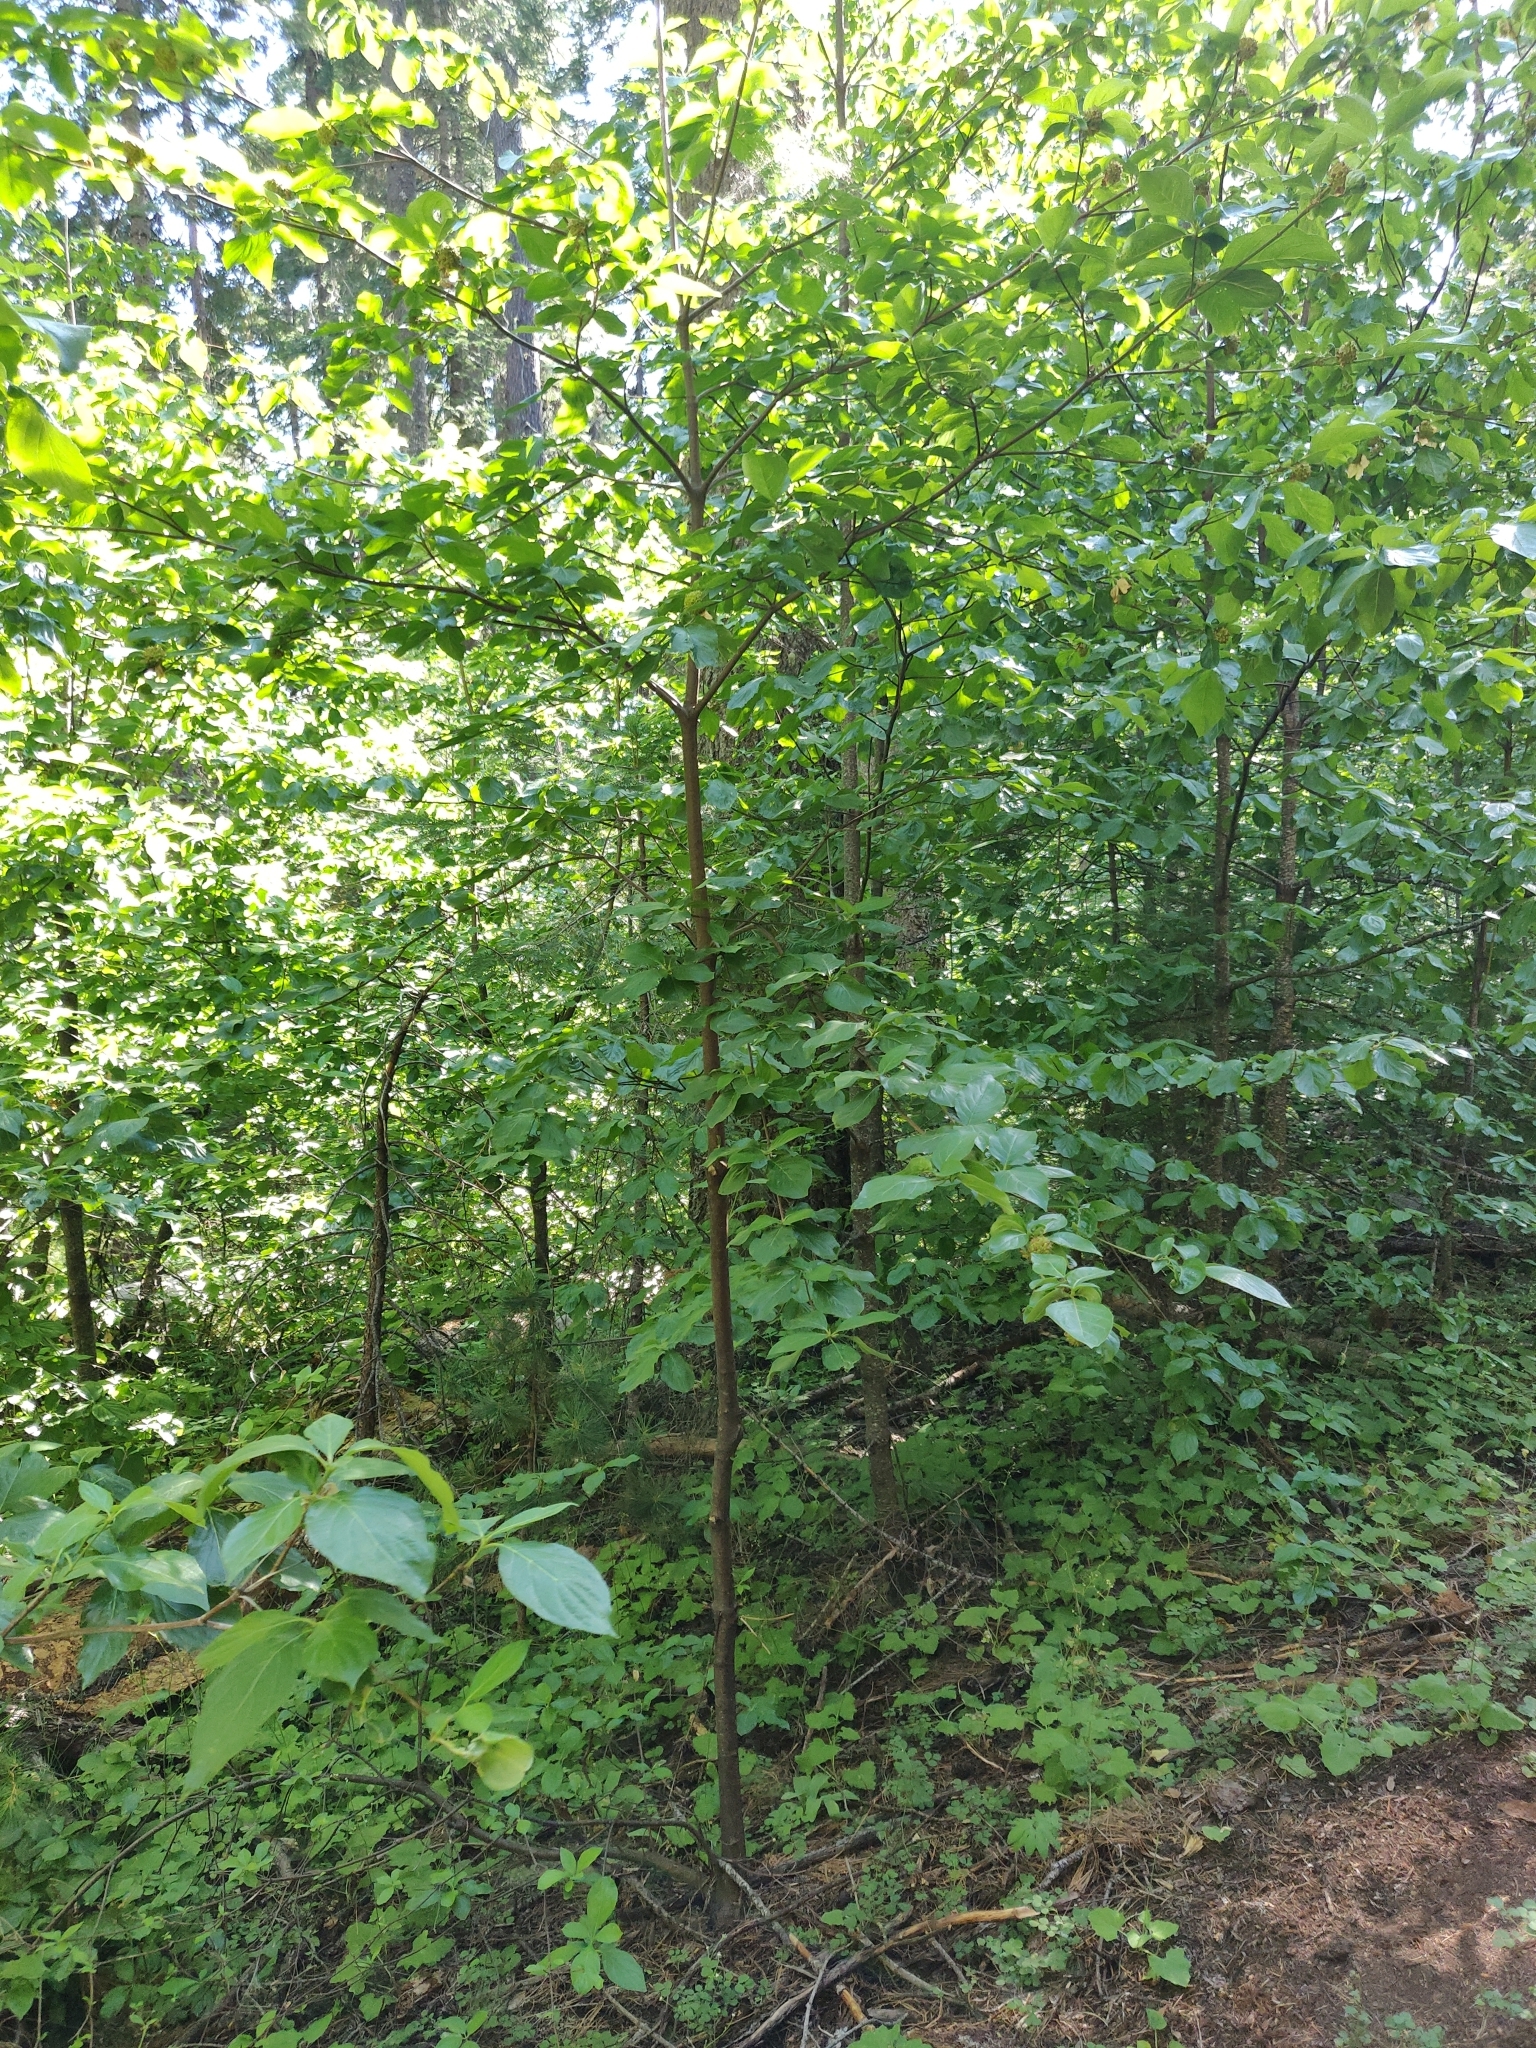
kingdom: Plantae
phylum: Tracheophyta
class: Magnoliopsida
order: Cornales
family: Cornaceae
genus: Cornus
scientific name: Cornus nuttallii
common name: Pacific dogwood
